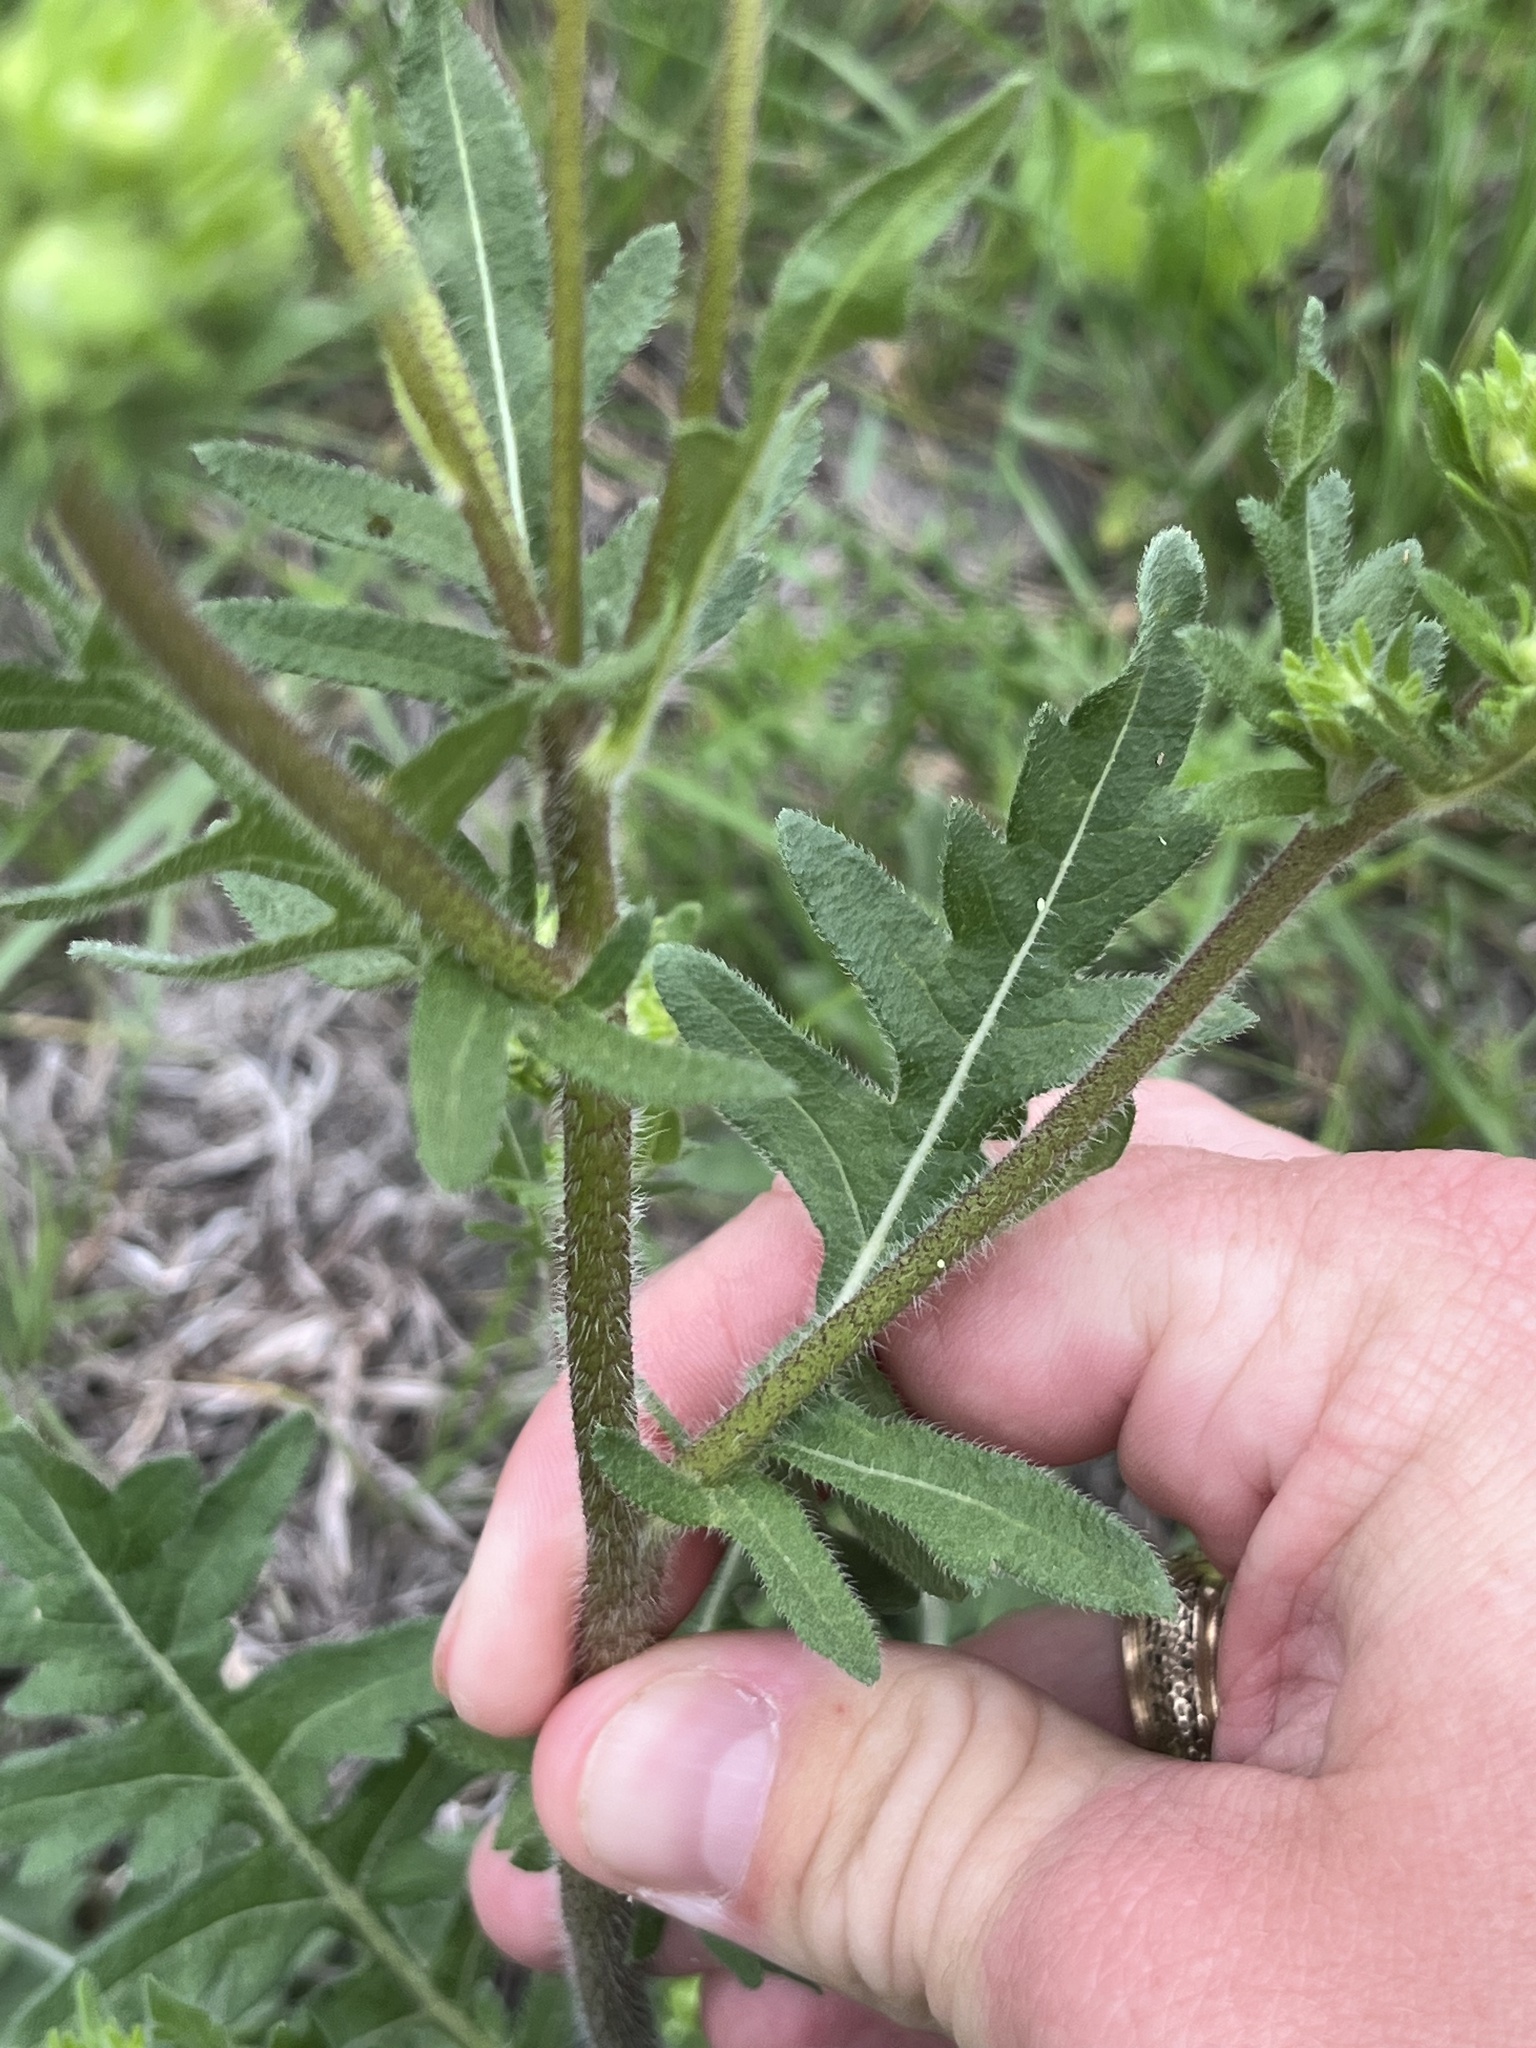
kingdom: Plantae
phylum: Tracheophyta
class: Magnoliopsida
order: Asterales
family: Asteraceae
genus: Engelmannia
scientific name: Engelmannia peristenia
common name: Engelmann's daisy
